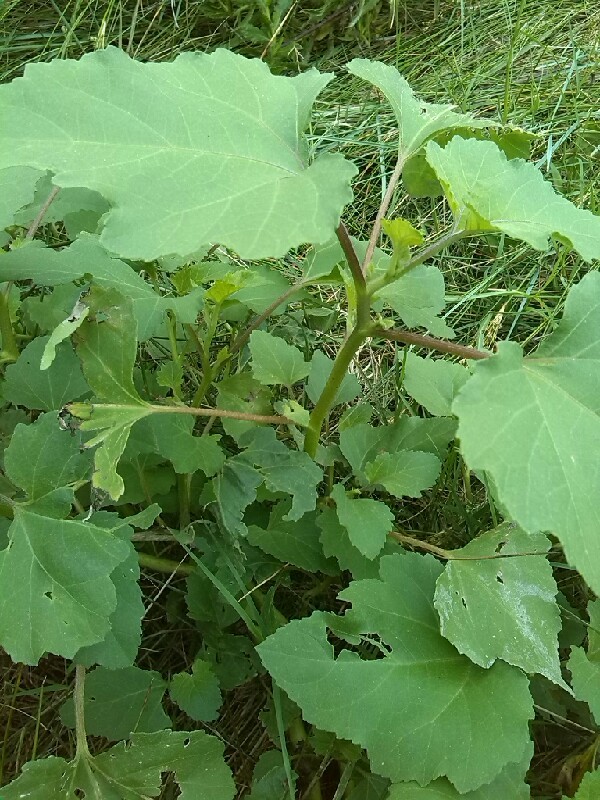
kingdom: Plantae
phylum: Tracheophyta
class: Magnoliopsida
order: Asterales
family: Asteraceae
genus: Xanthium
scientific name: Xanthium strumarium
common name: Rough cocklebur
